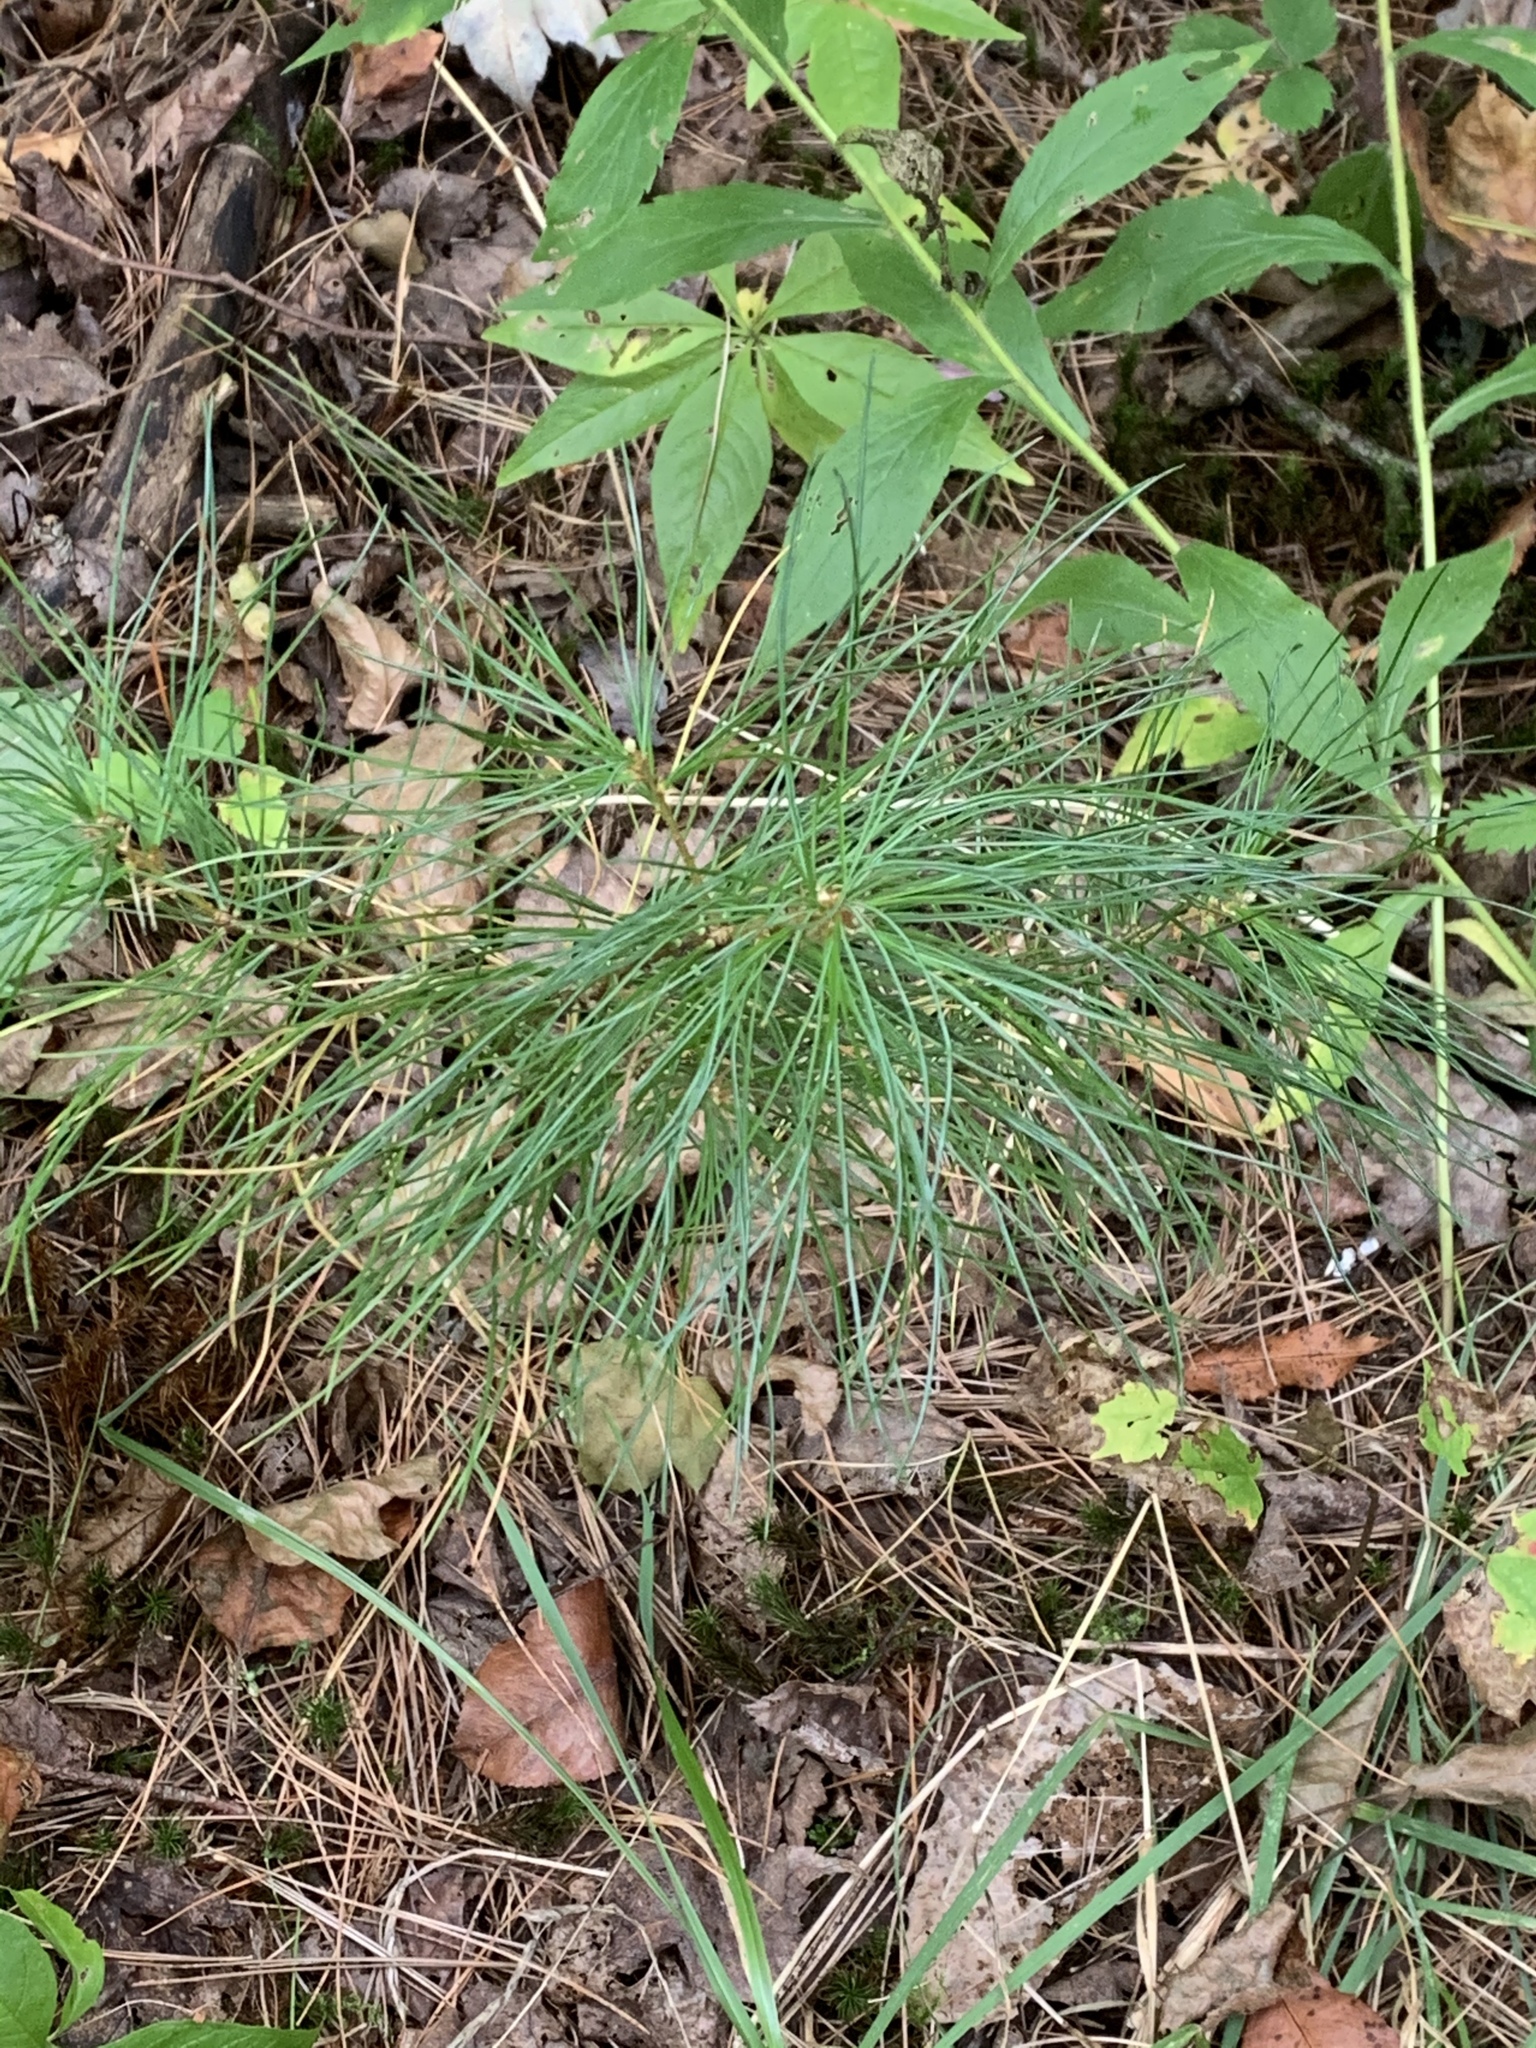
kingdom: Plantae
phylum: Tracheophyta
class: Pinopsida
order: Pinales
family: Pinaceae
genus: Pinus
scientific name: Pinus strobus
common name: Weymouth pine
